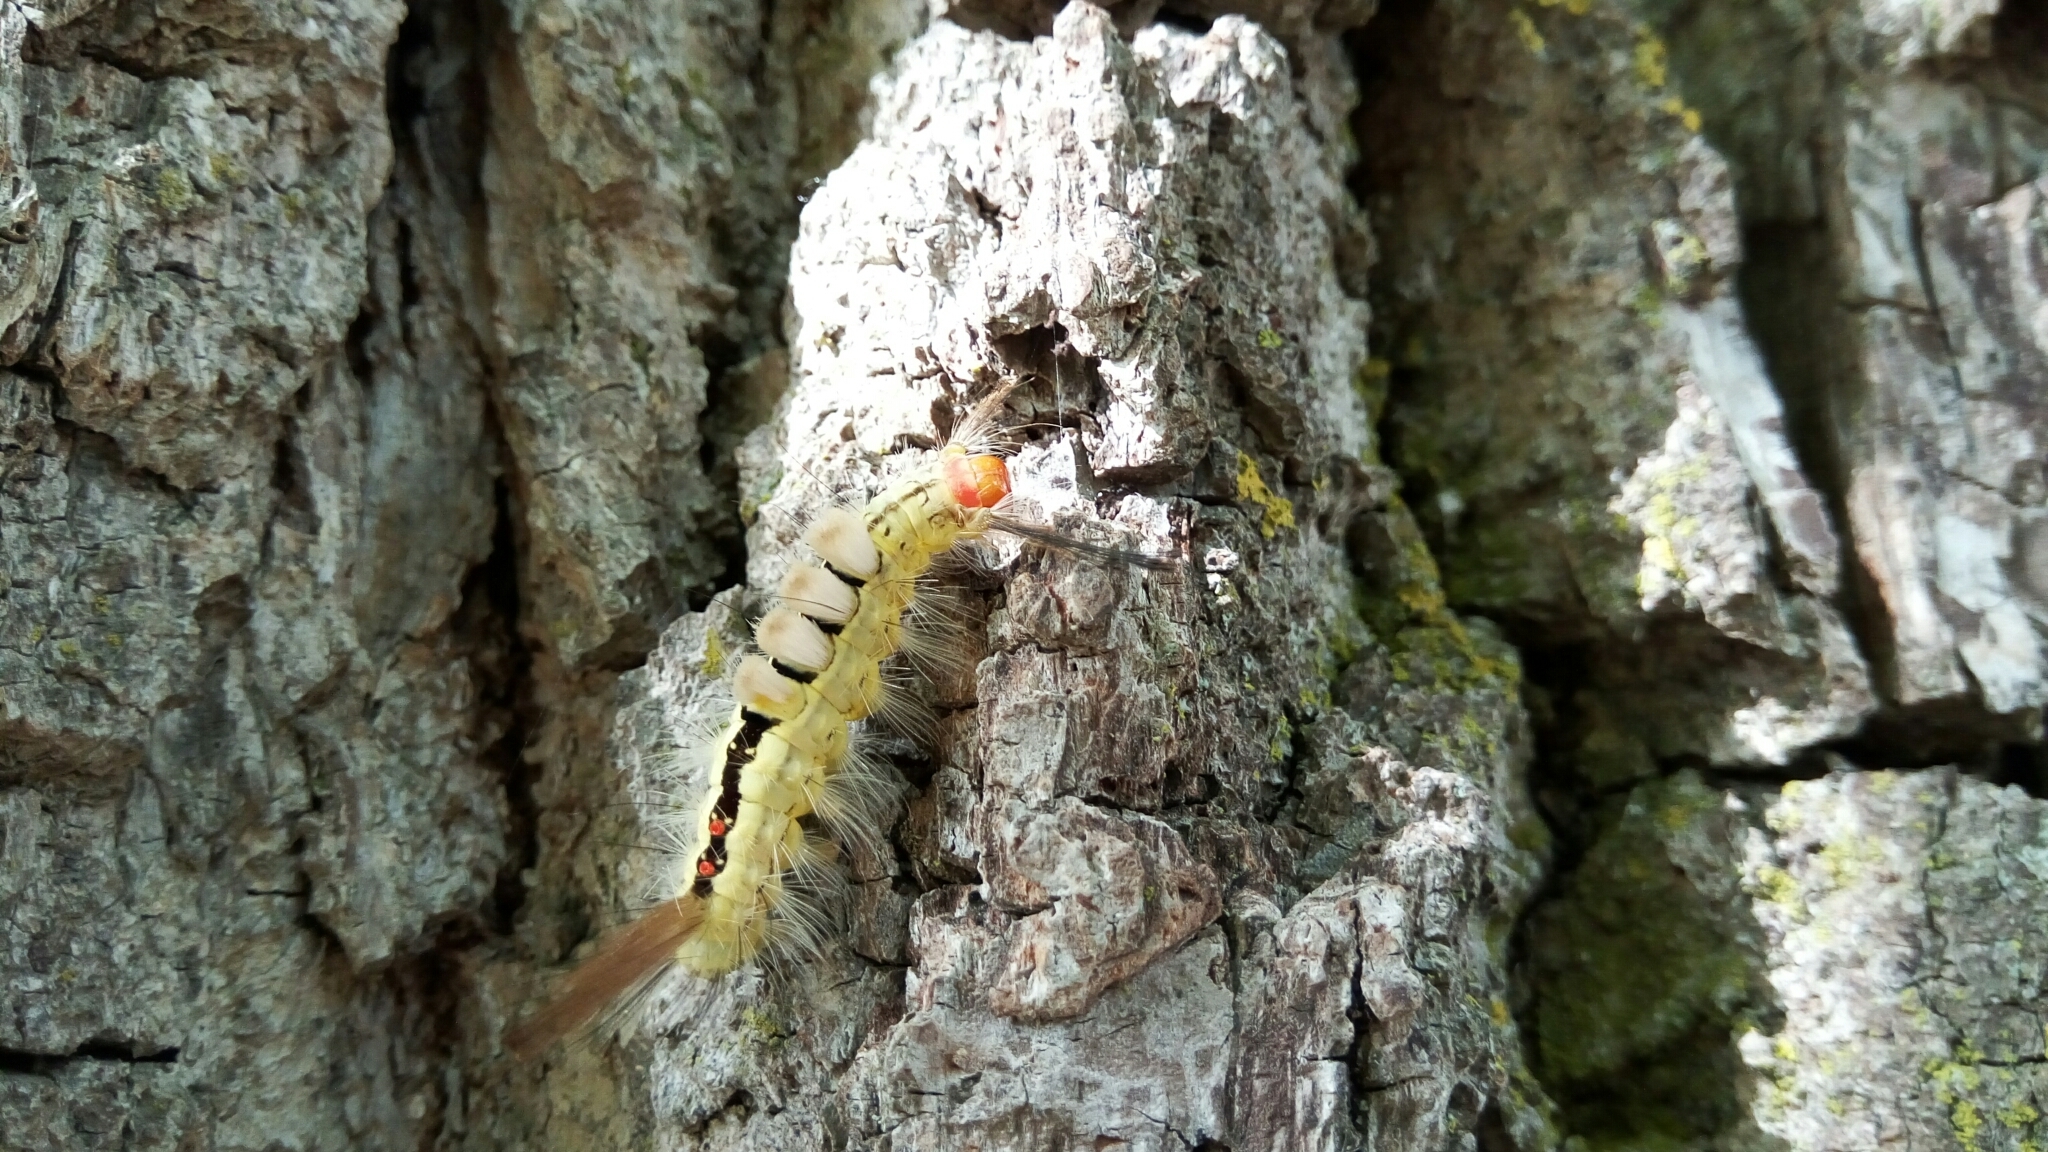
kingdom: Animalia
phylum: Arthropoda
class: Insecta
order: Lepidoptera
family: Erebidae
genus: Orgyia
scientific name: Orgyia leucostigma
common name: White-marked tussock moth
